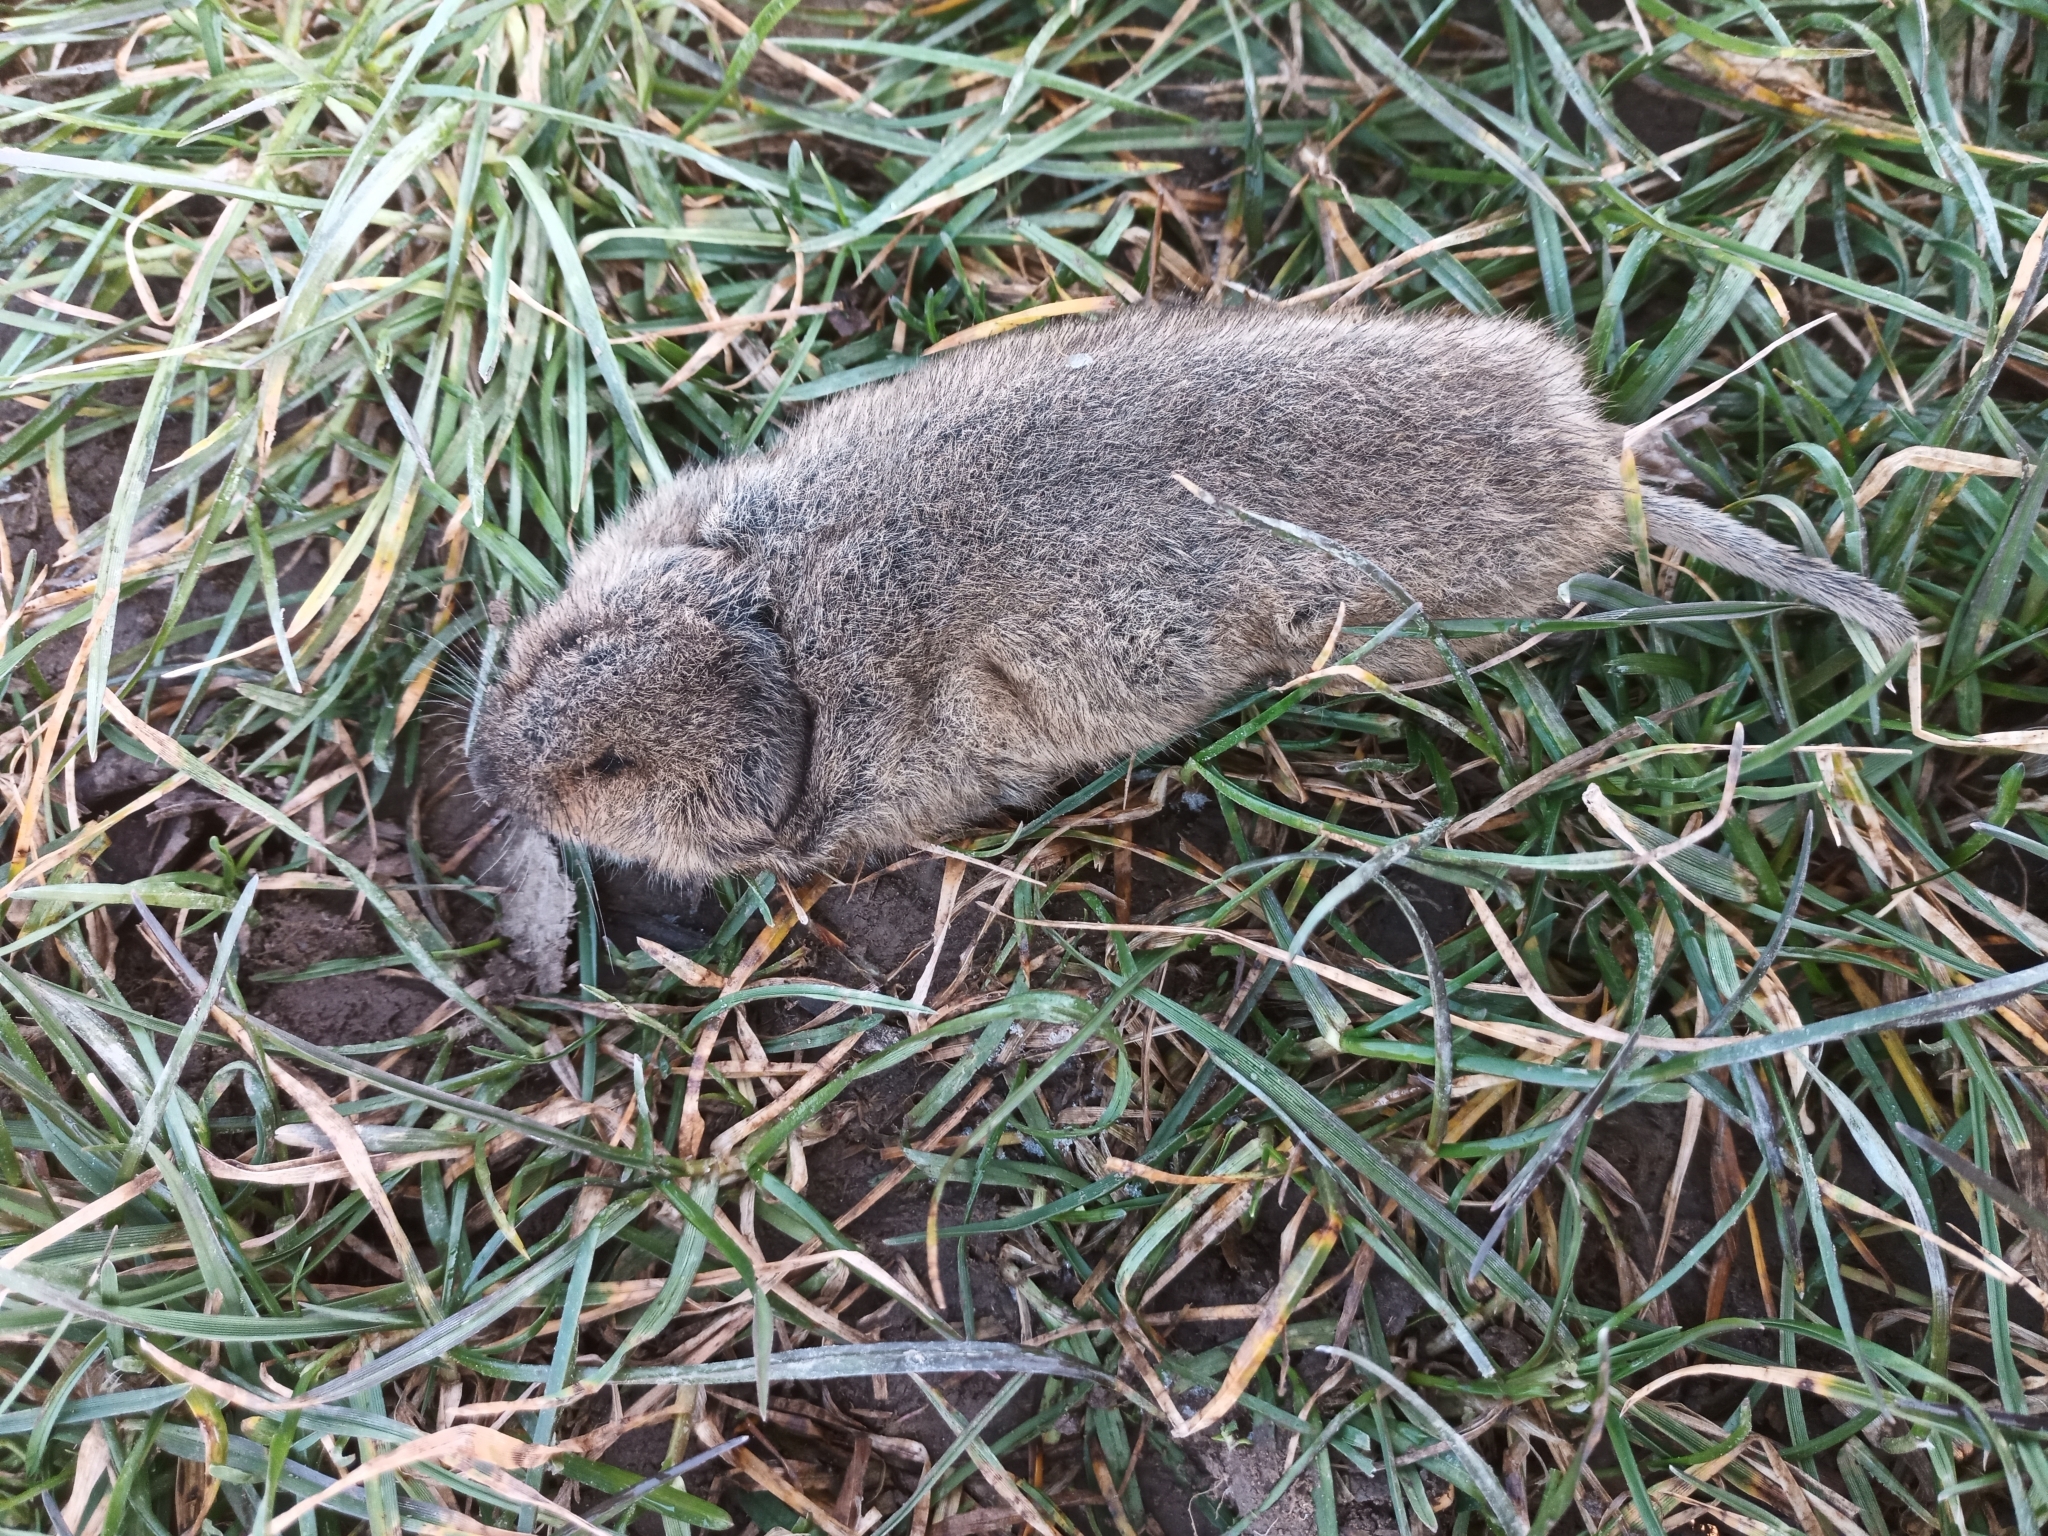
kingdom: Animalia
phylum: Chordata
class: Mammalia
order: Rodentia
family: Cricetidae
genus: Arvicola
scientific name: Arvicola amphibius
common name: European water vole
